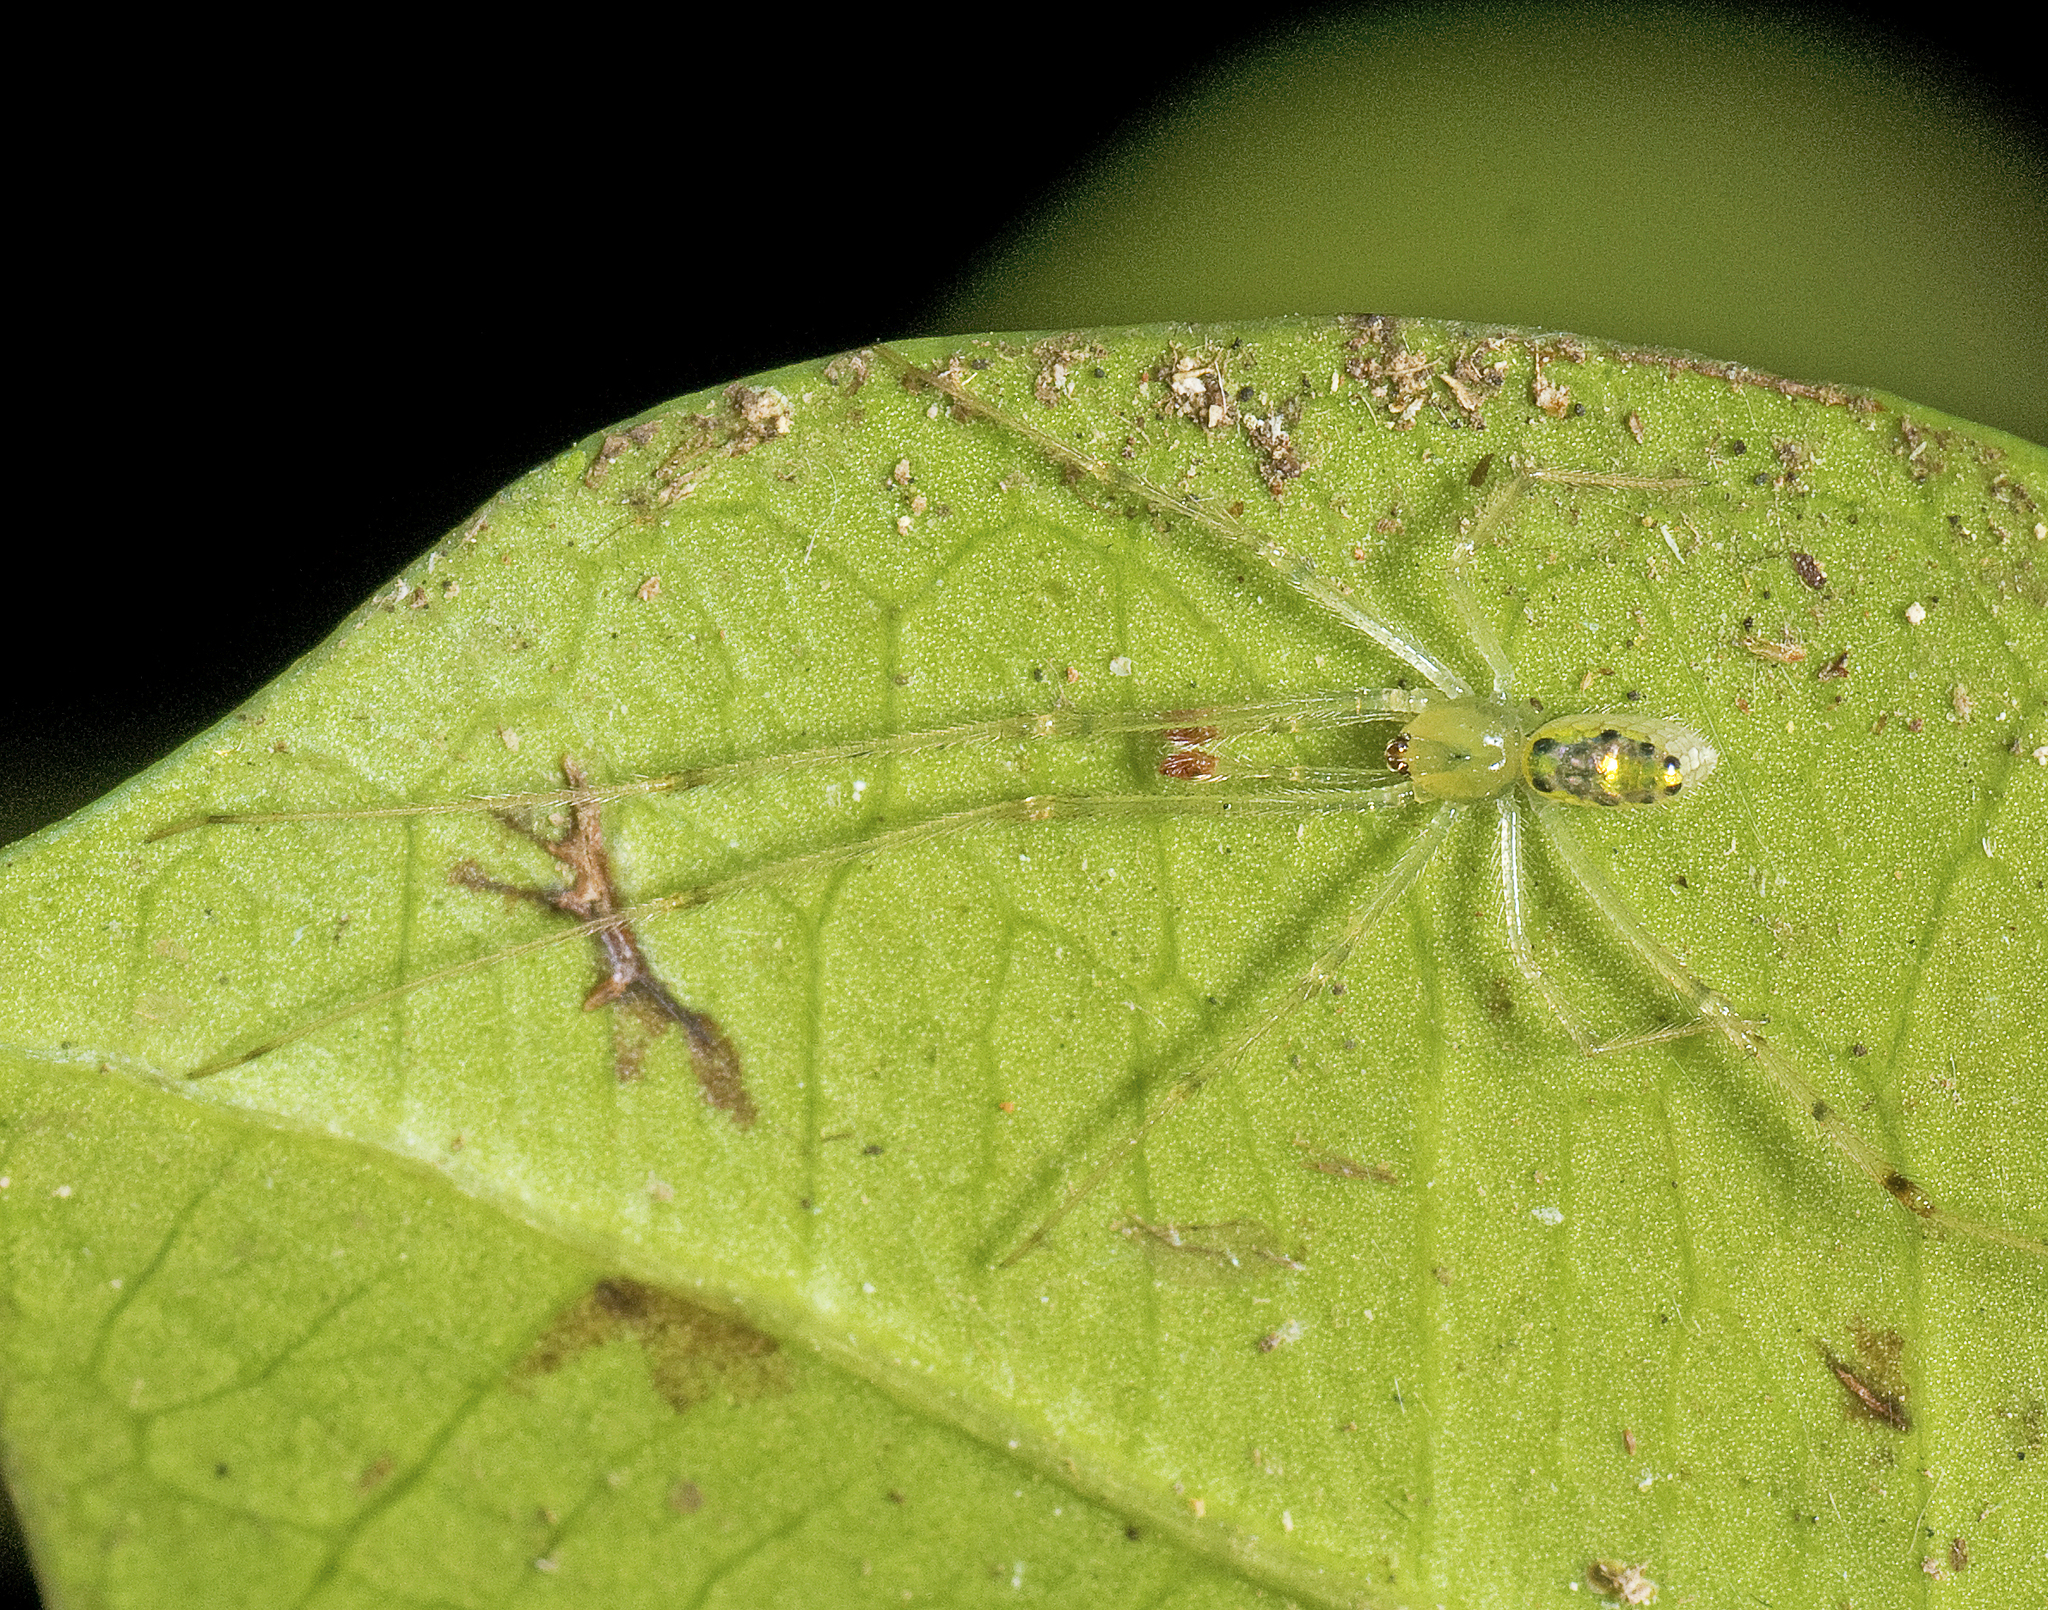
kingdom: Animalia
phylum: Arthropoda
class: Arachnida
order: Araneae
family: Theridiidae
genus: Thwaitesia
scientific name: Thwaitesia nigronodosa
